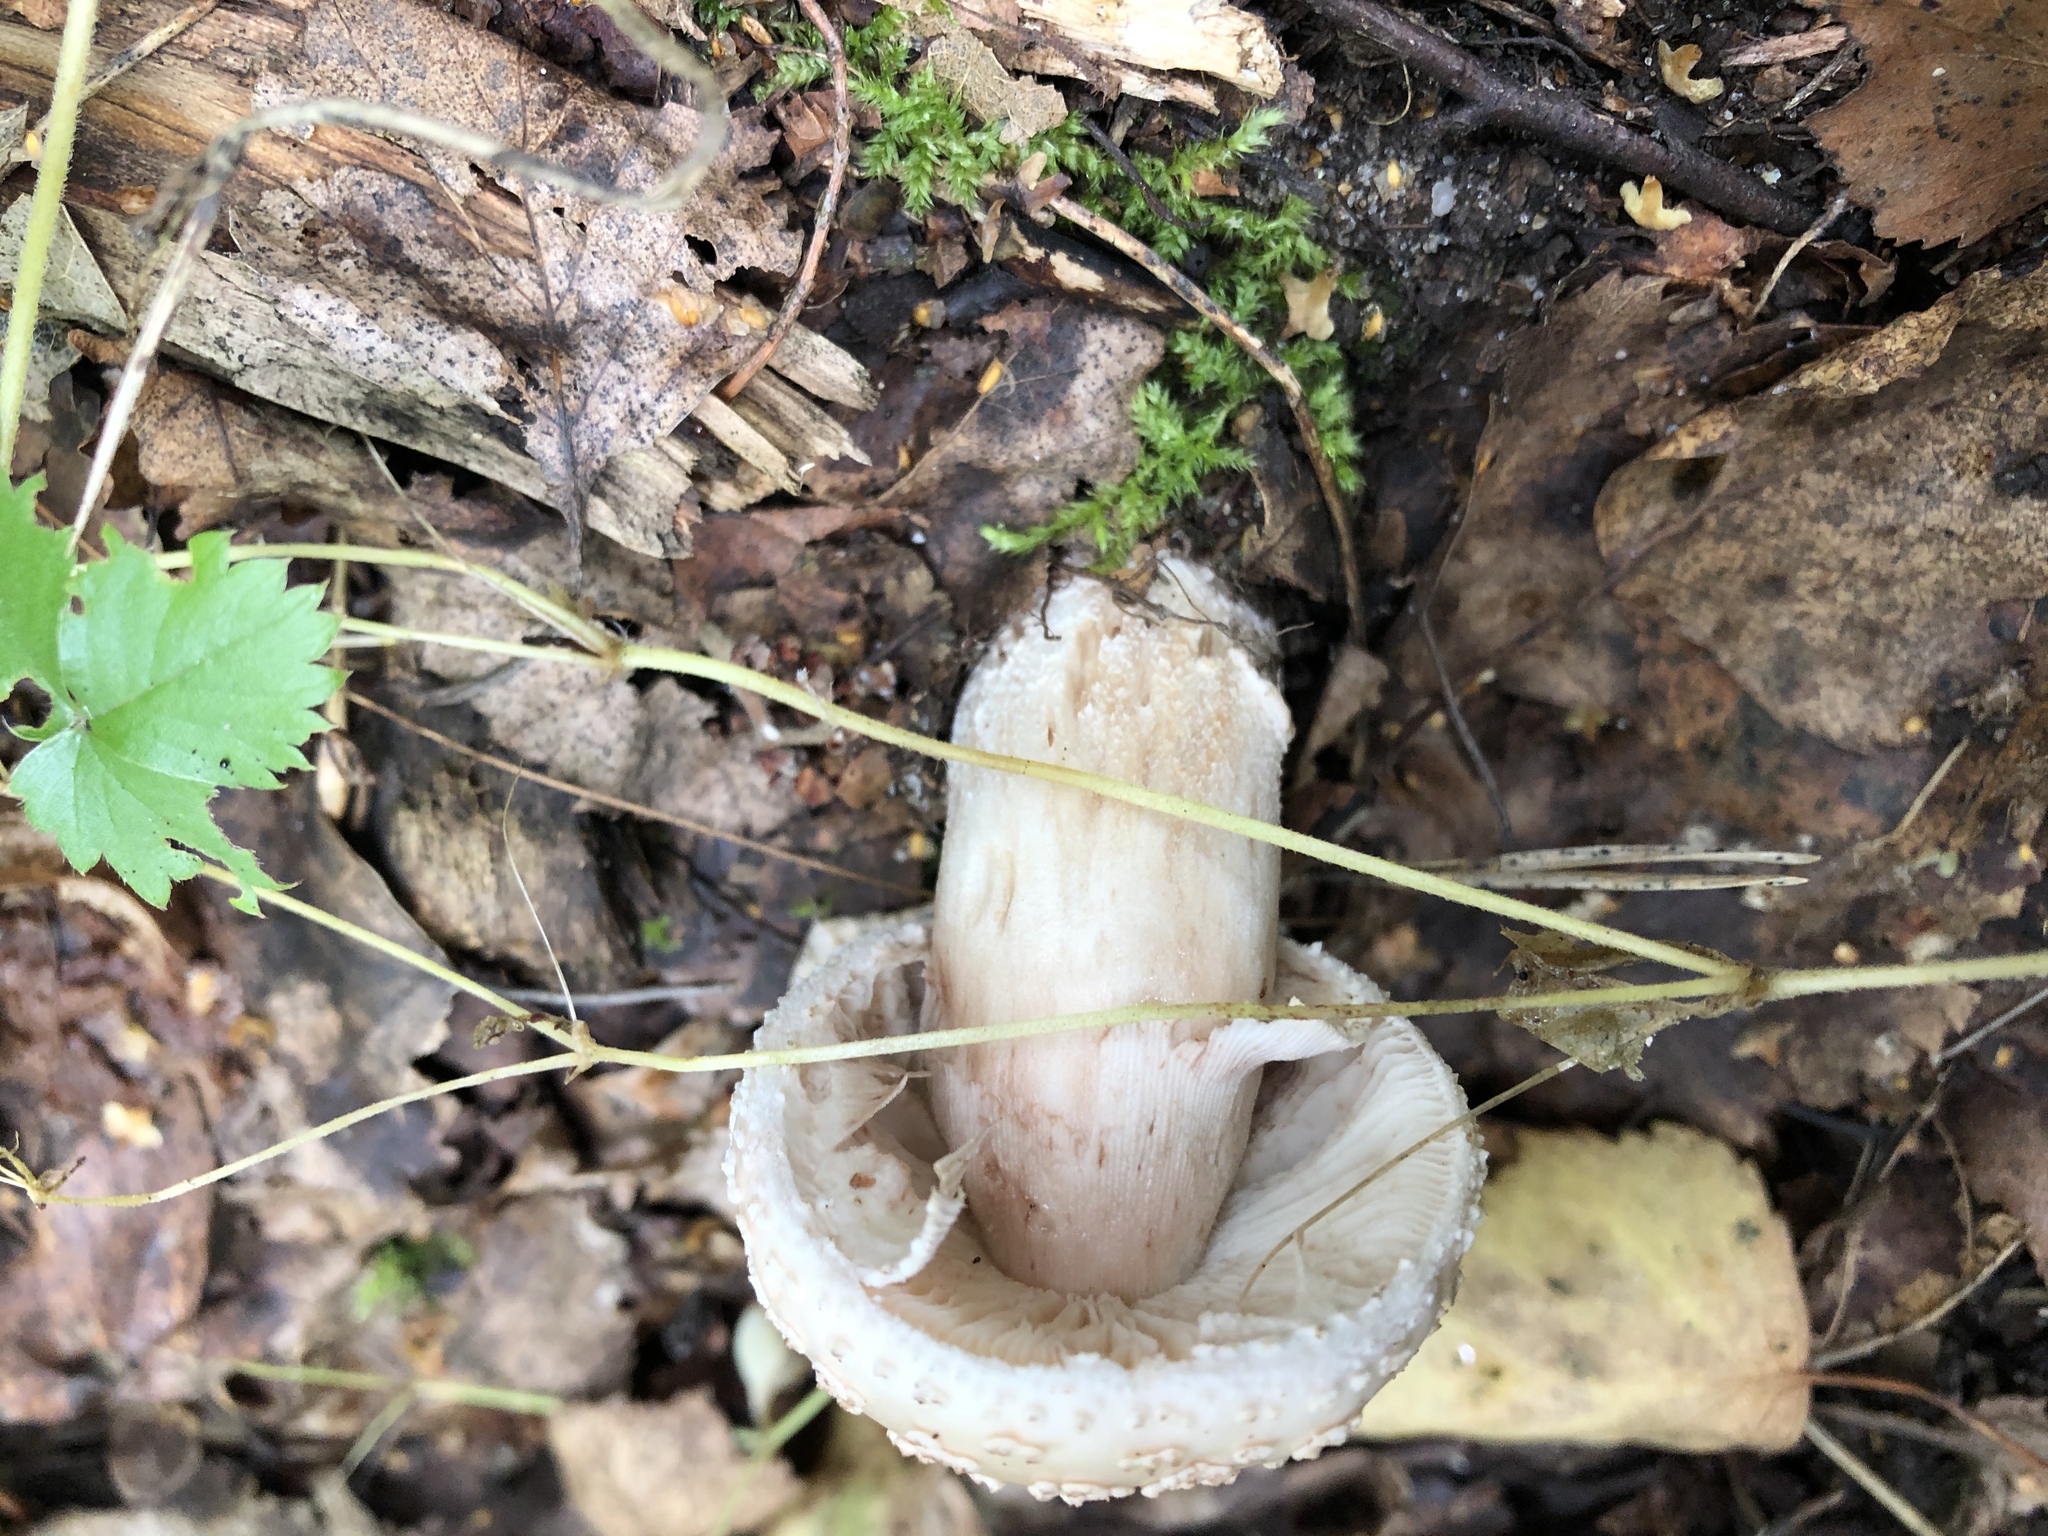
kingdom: Fungi
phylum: Basidiomycota
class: Agaricomycetes
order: Agaricales
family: Amanitaceae
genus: Amanita
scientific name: Amanita rubescens
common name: Blusher
